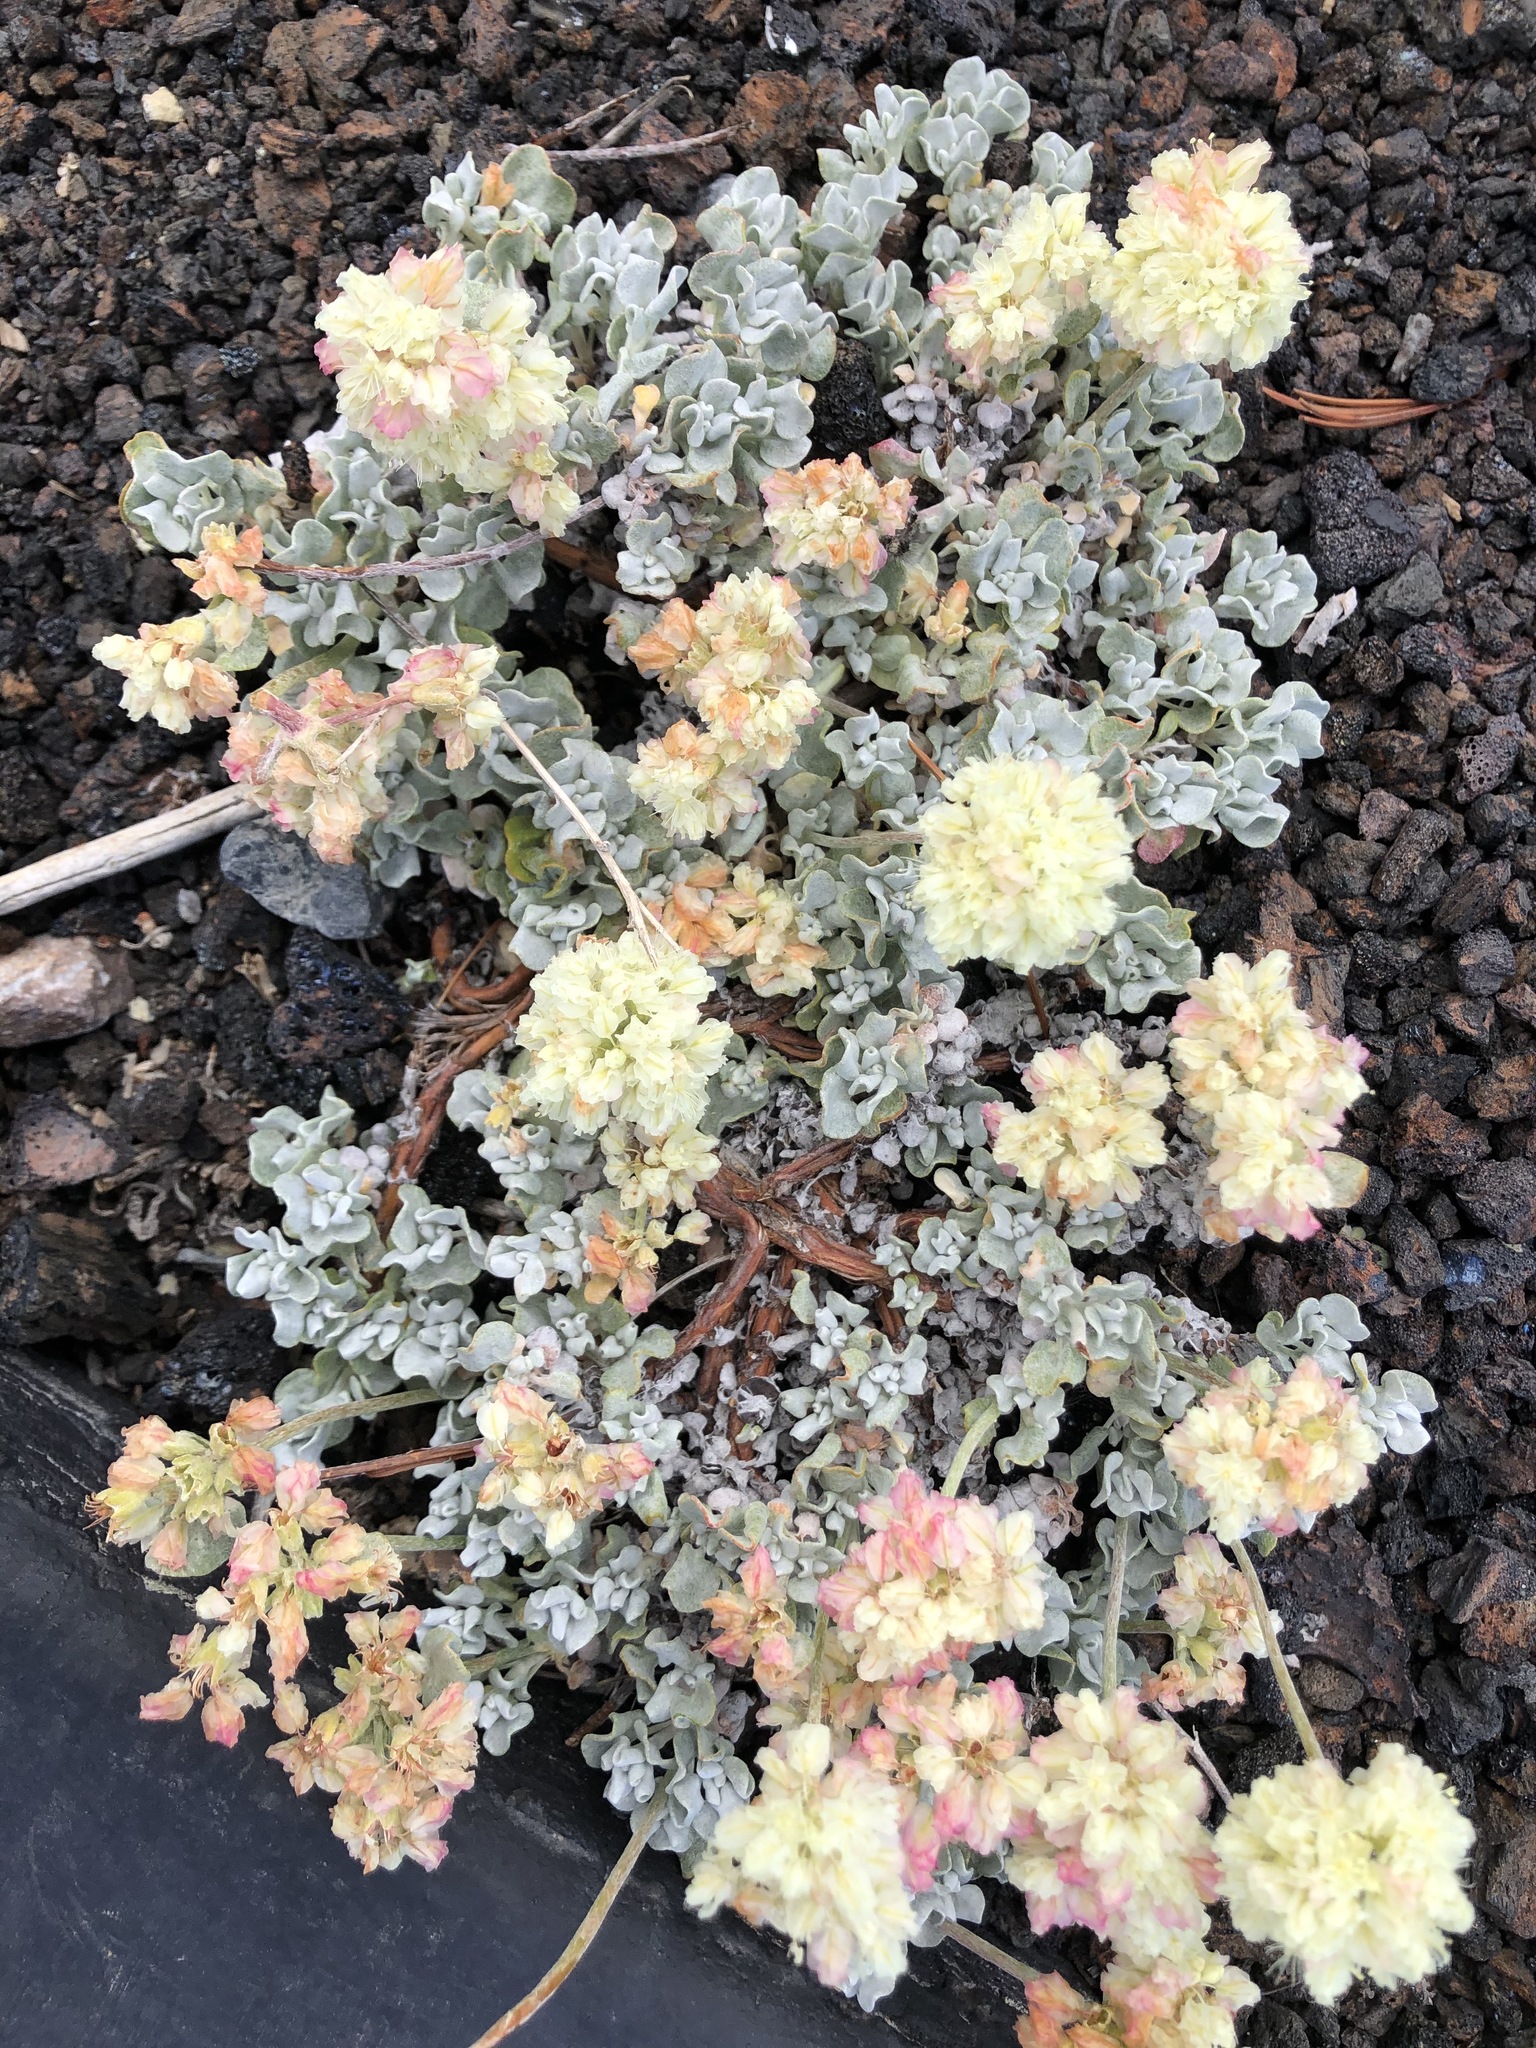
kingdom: Plantae
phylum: Tracheophyta
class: Magnoliopsida
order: Caryophyllales
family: Polygonaceae
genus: Eriogonum
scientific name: Eriogonum ovalifolium
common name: Cushion buckwheat
